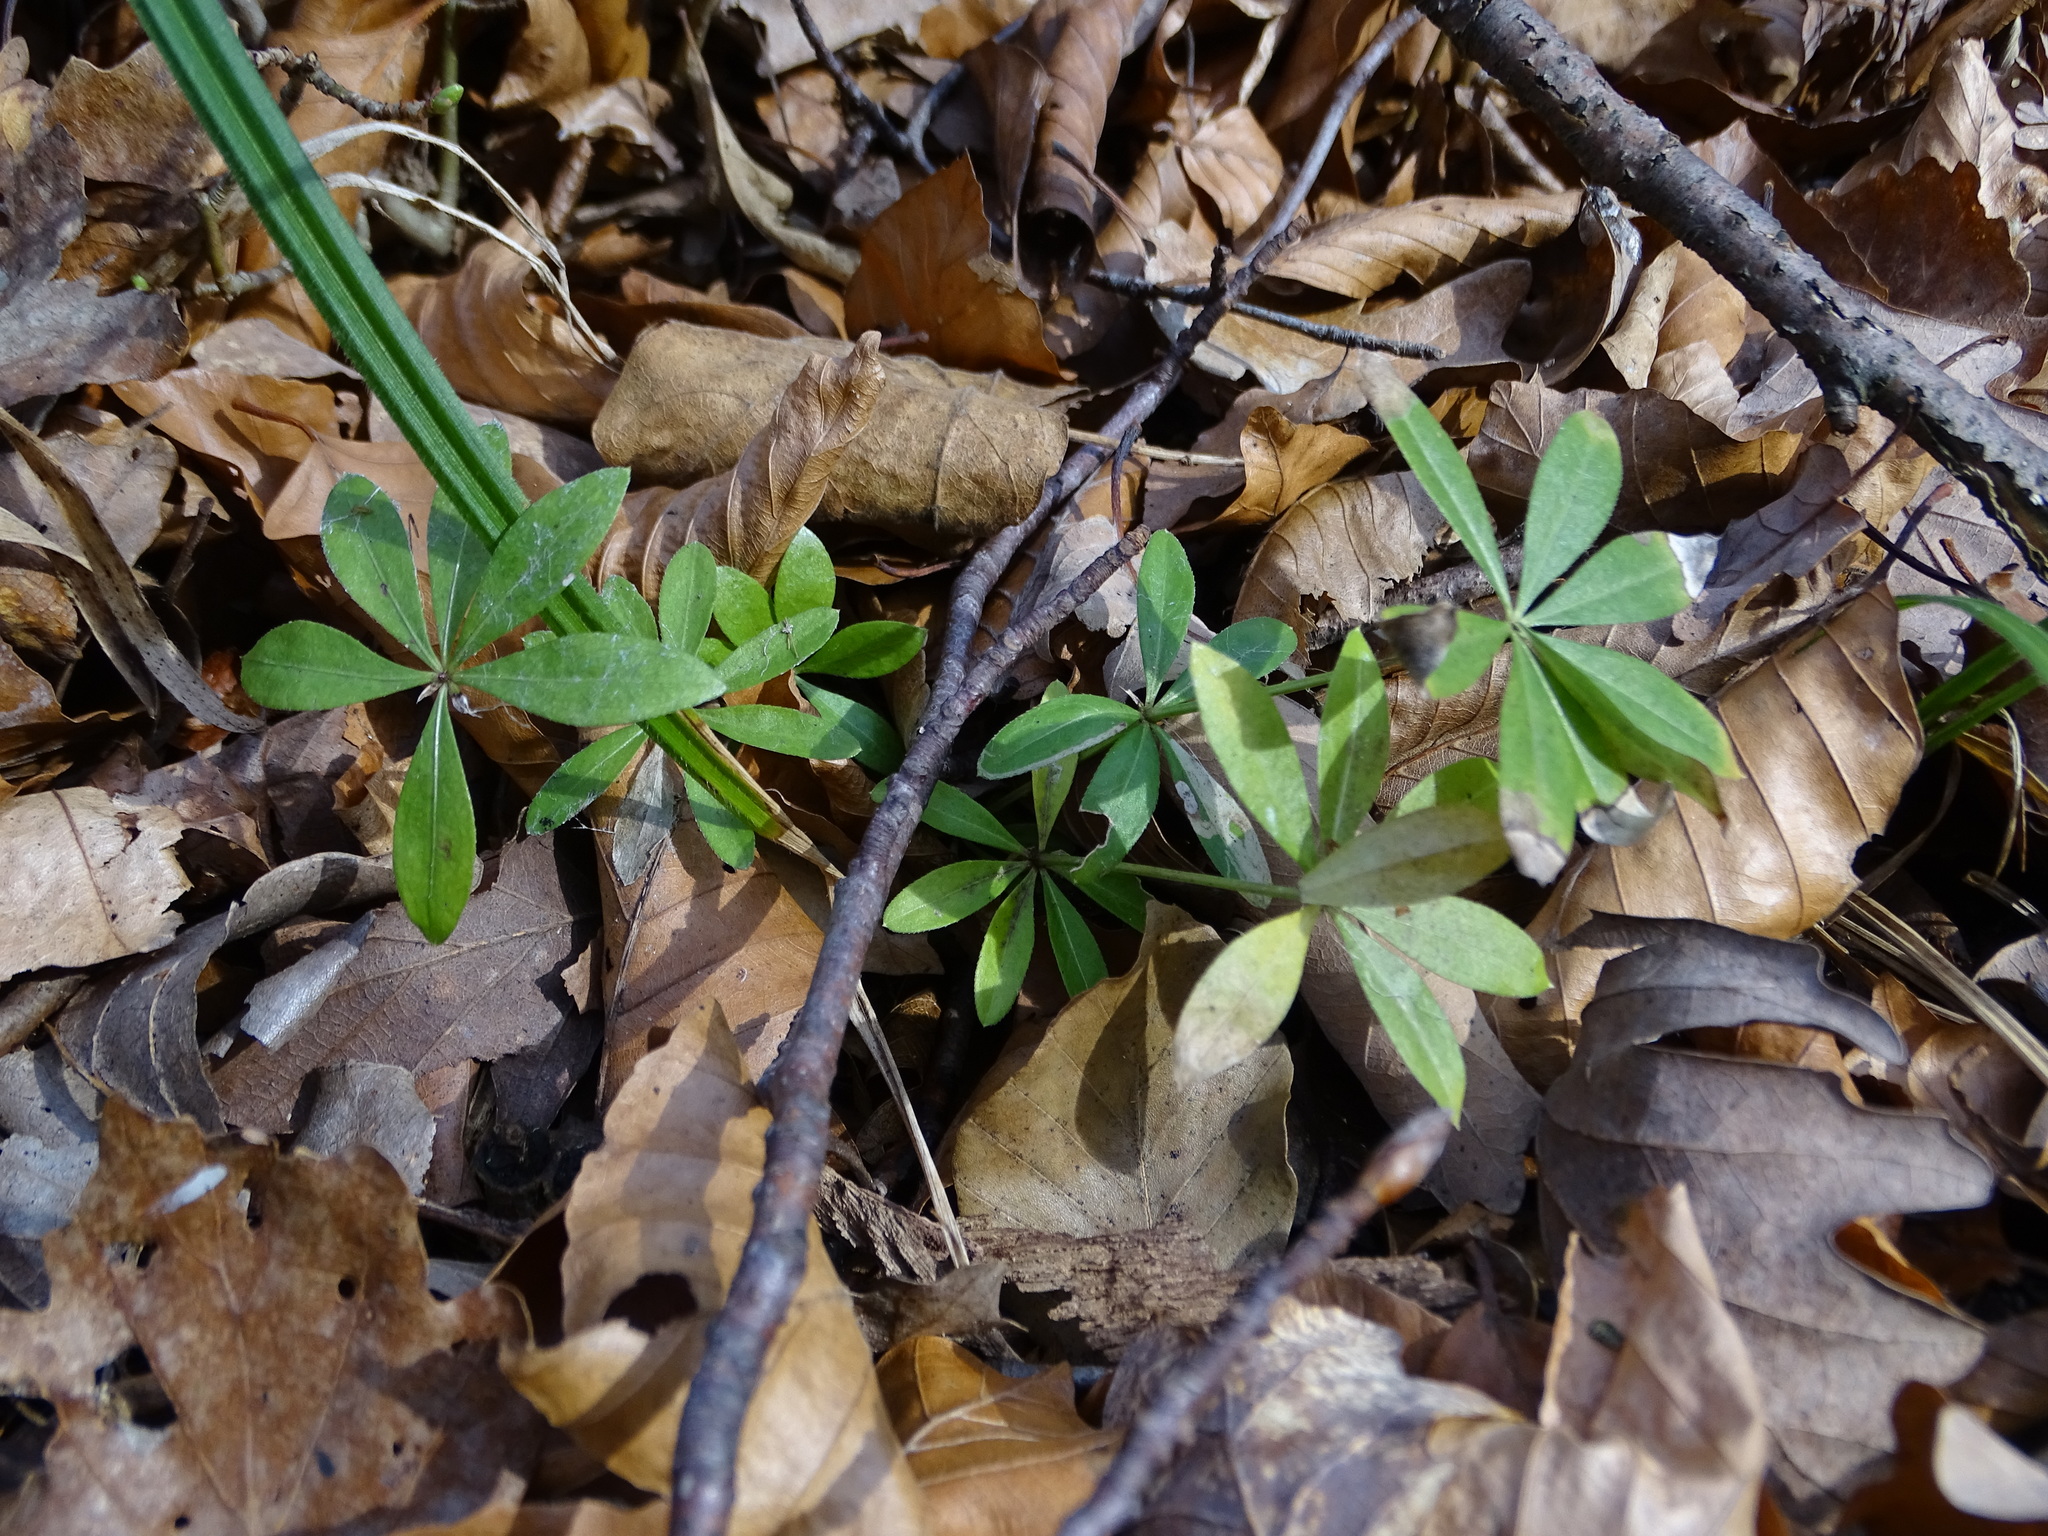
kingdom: Plantae
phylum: Tracheophyta
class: Magnoliopsida
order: Gentianales
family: Rubiaceae
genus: Galium
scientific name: Galium odoratum
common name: Sweet woodruff
